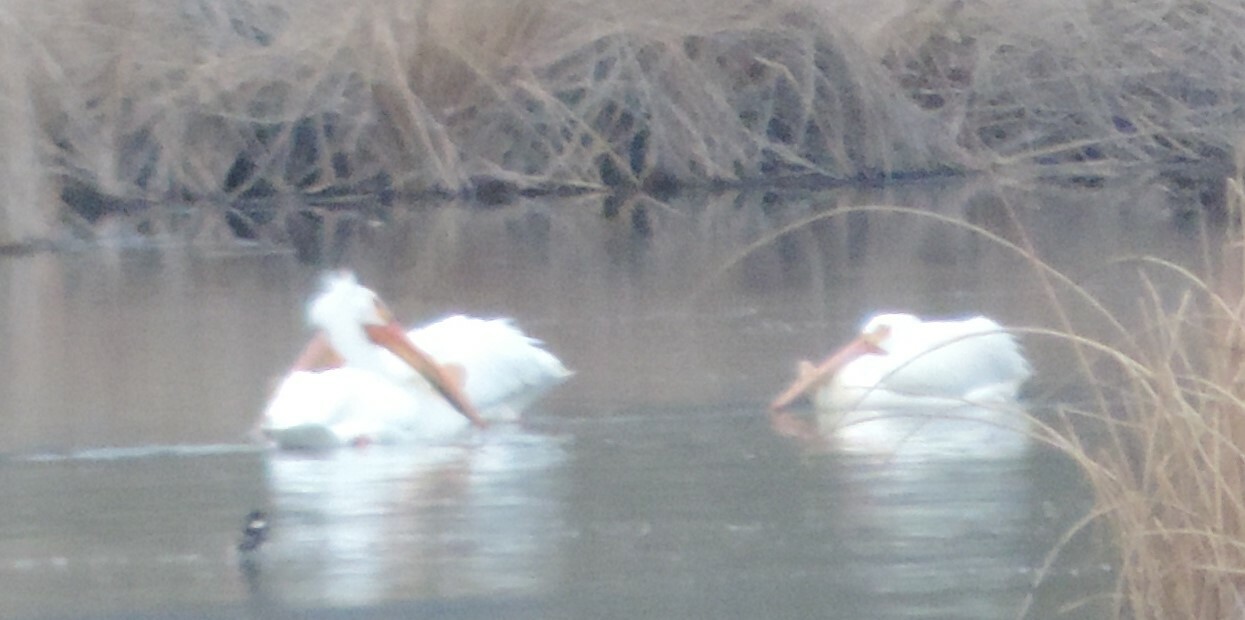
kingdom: Animalia
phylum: Chordata
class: Aves
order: Pelecaniformes
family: Pelecanidae
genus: Pelecanus
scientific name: Pelecanus erythrorhynchos
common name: American white pelican
